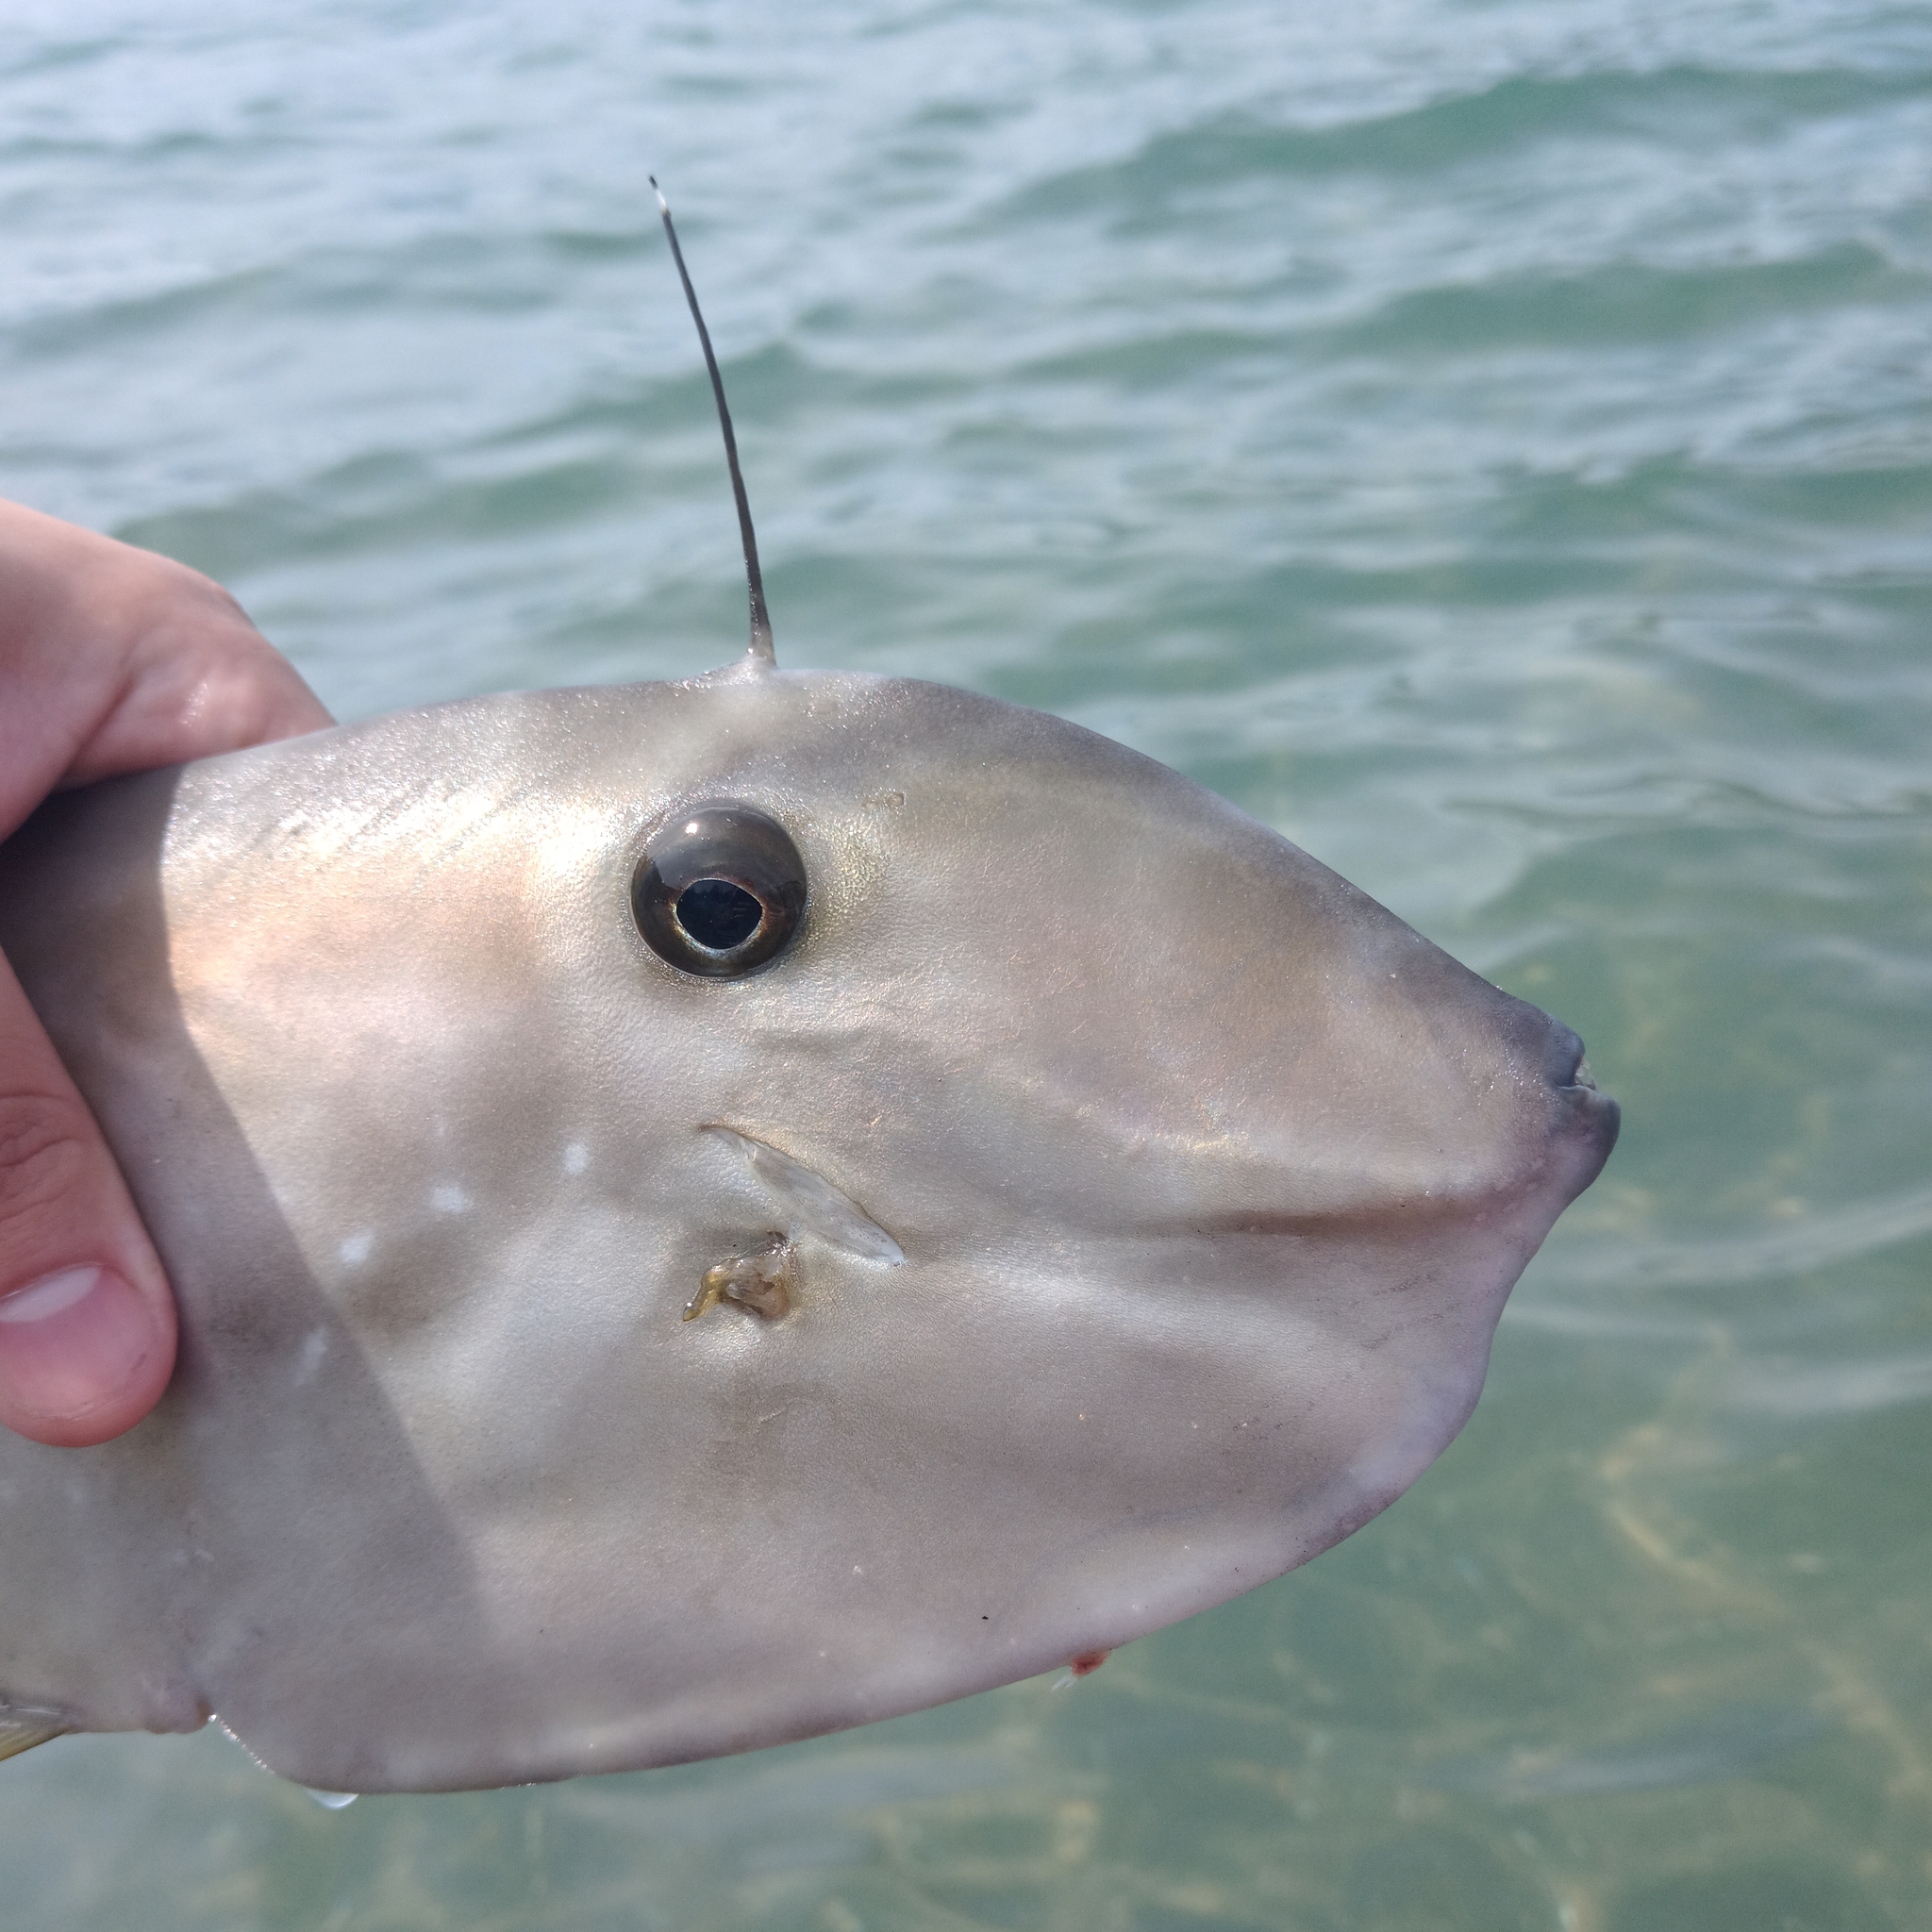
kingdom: Animalia
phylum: Chordata
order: Tetraodontiformes
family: Monacanthidae
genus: Aluterus
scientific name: Aluterus monoceros
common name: Batfish
